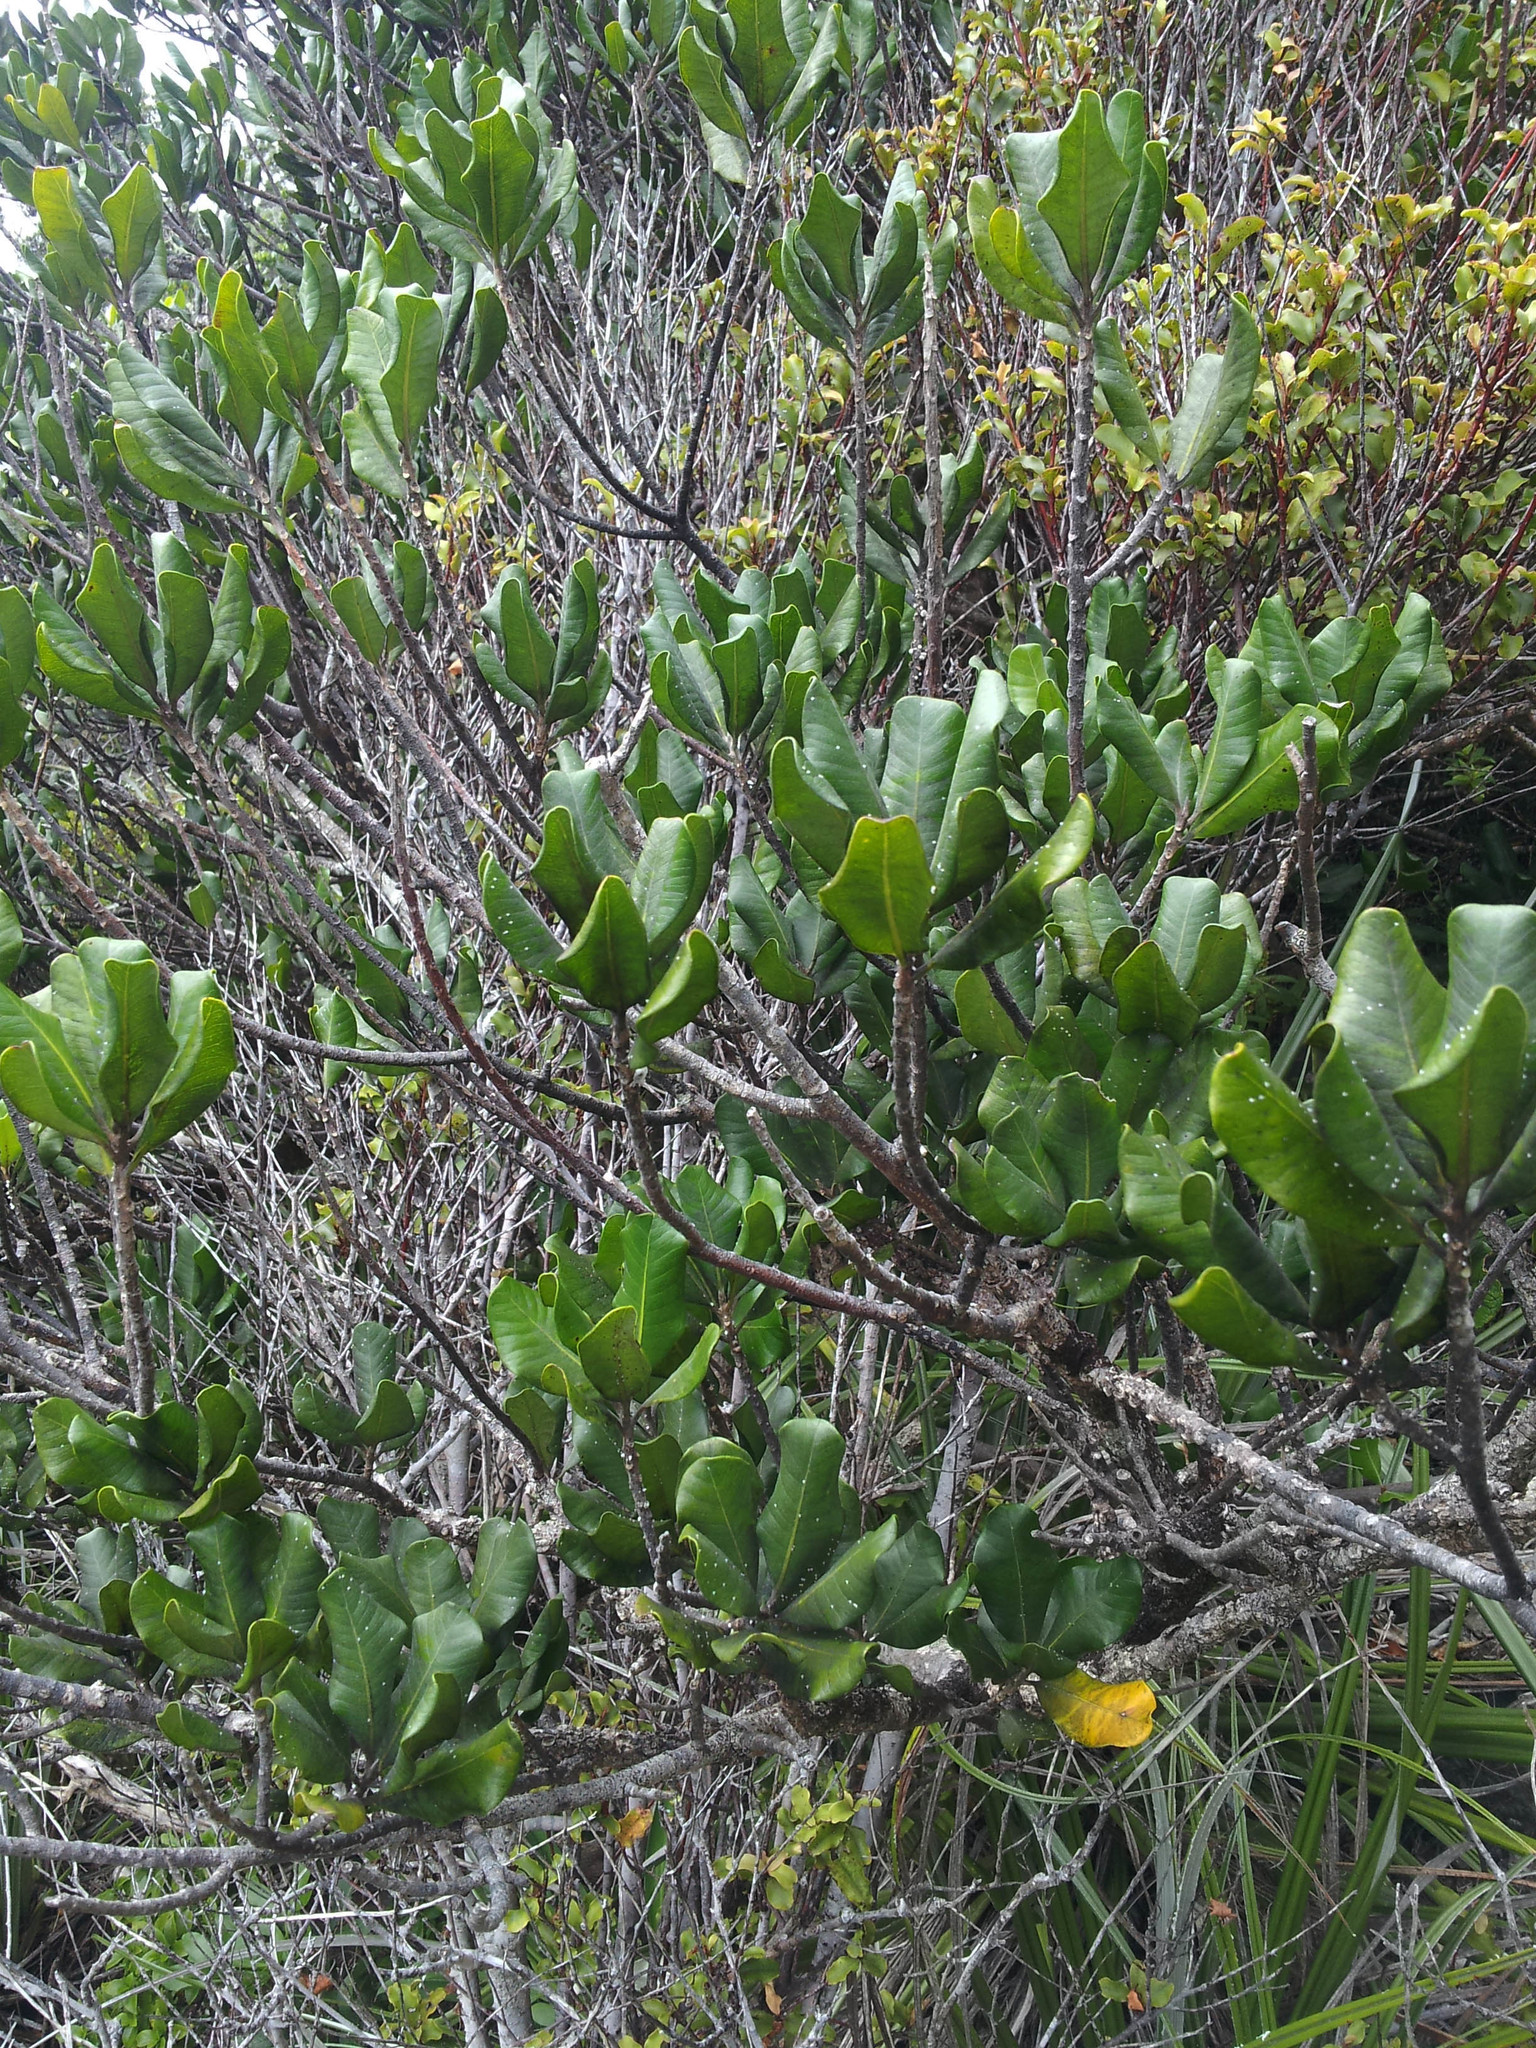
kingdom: Plantae
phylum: Tracheophyta
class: Magnoliopsida
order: Ericales
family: Sapotaceae
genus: Planchonella
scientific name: Planchonella costata
